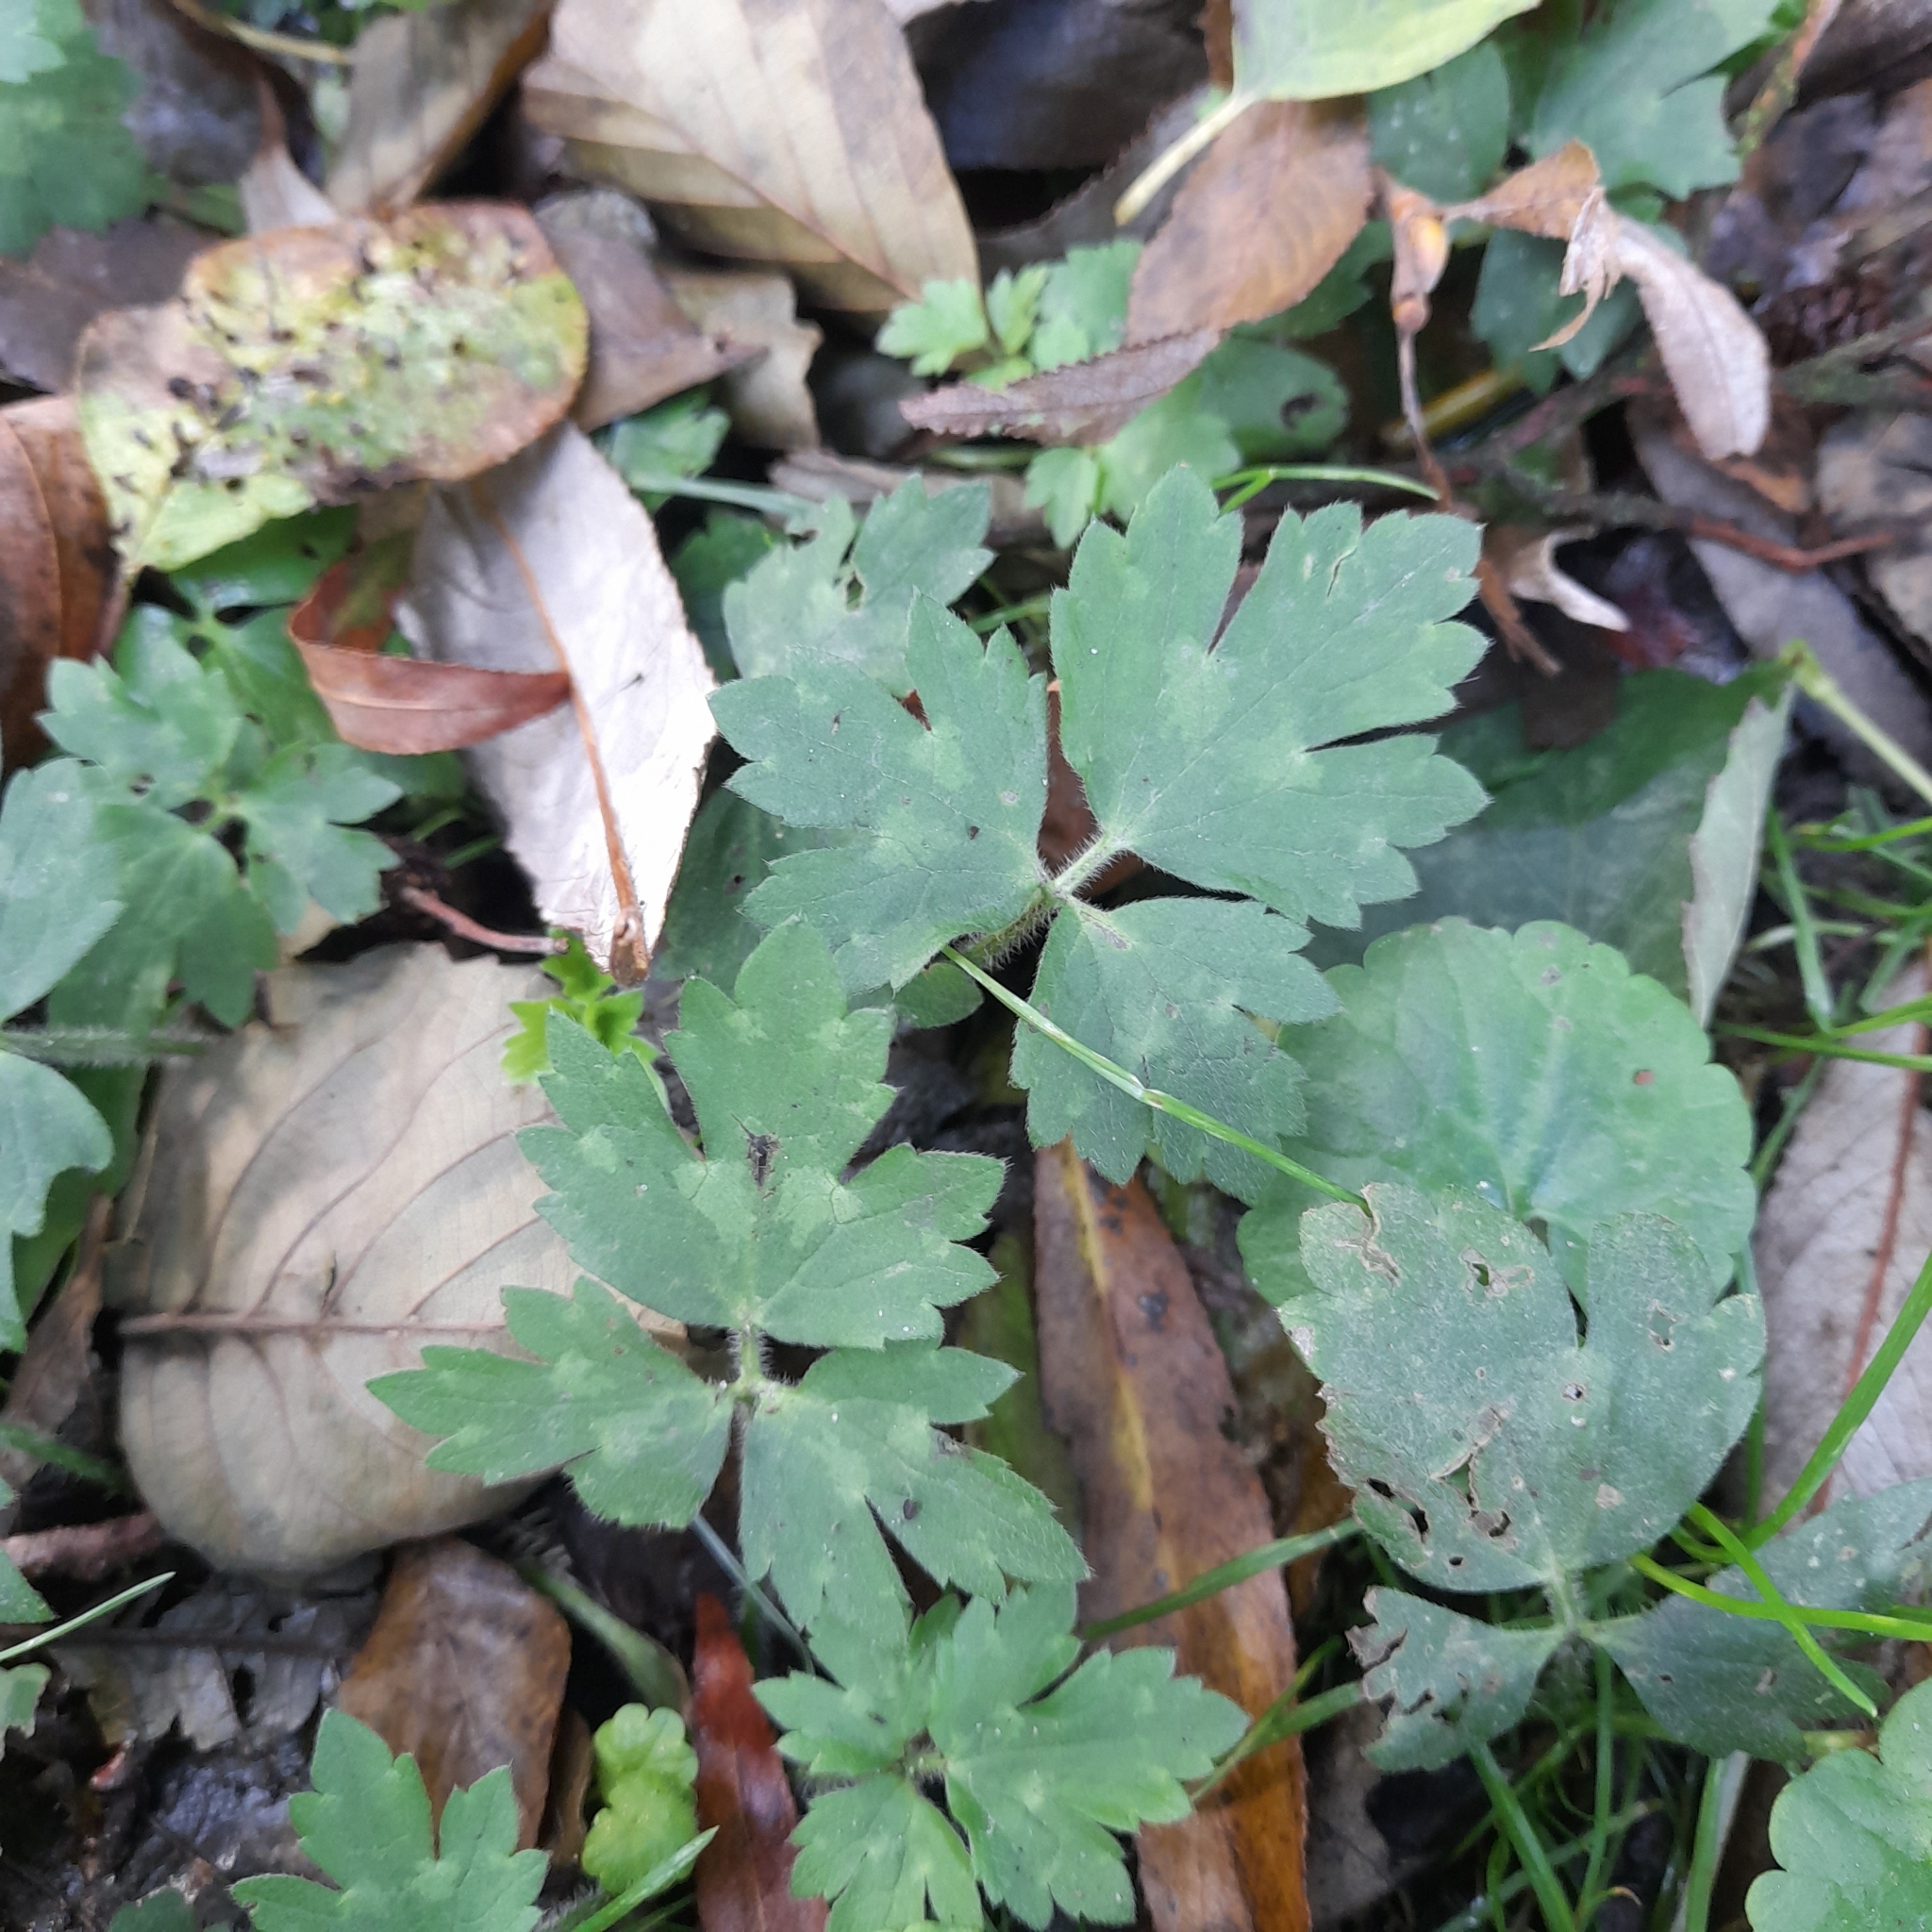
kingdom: Plantae
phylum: Tracheophyta
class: Magnoliopsida
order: Ranunculales
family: Ranunculaceae
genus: Ranunculus
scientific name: Ranunculus repens
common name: Creeping buttercup
